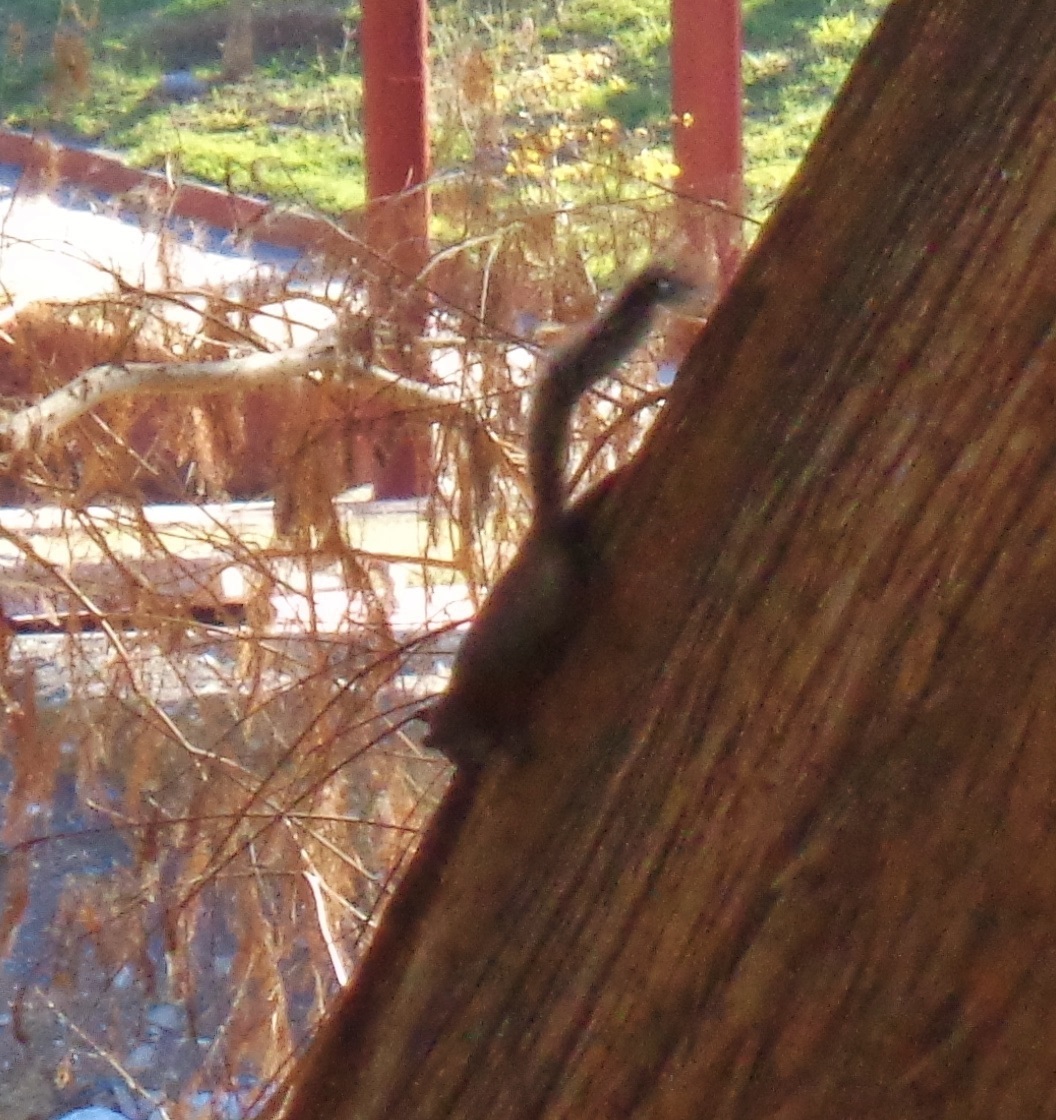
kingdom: Animalia
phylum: Chordata
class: Mammalia
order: Rodentia
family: Sciuridae
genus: Sciurus
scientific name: Sciurus aureogaster
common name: Red-bellied squirrel
